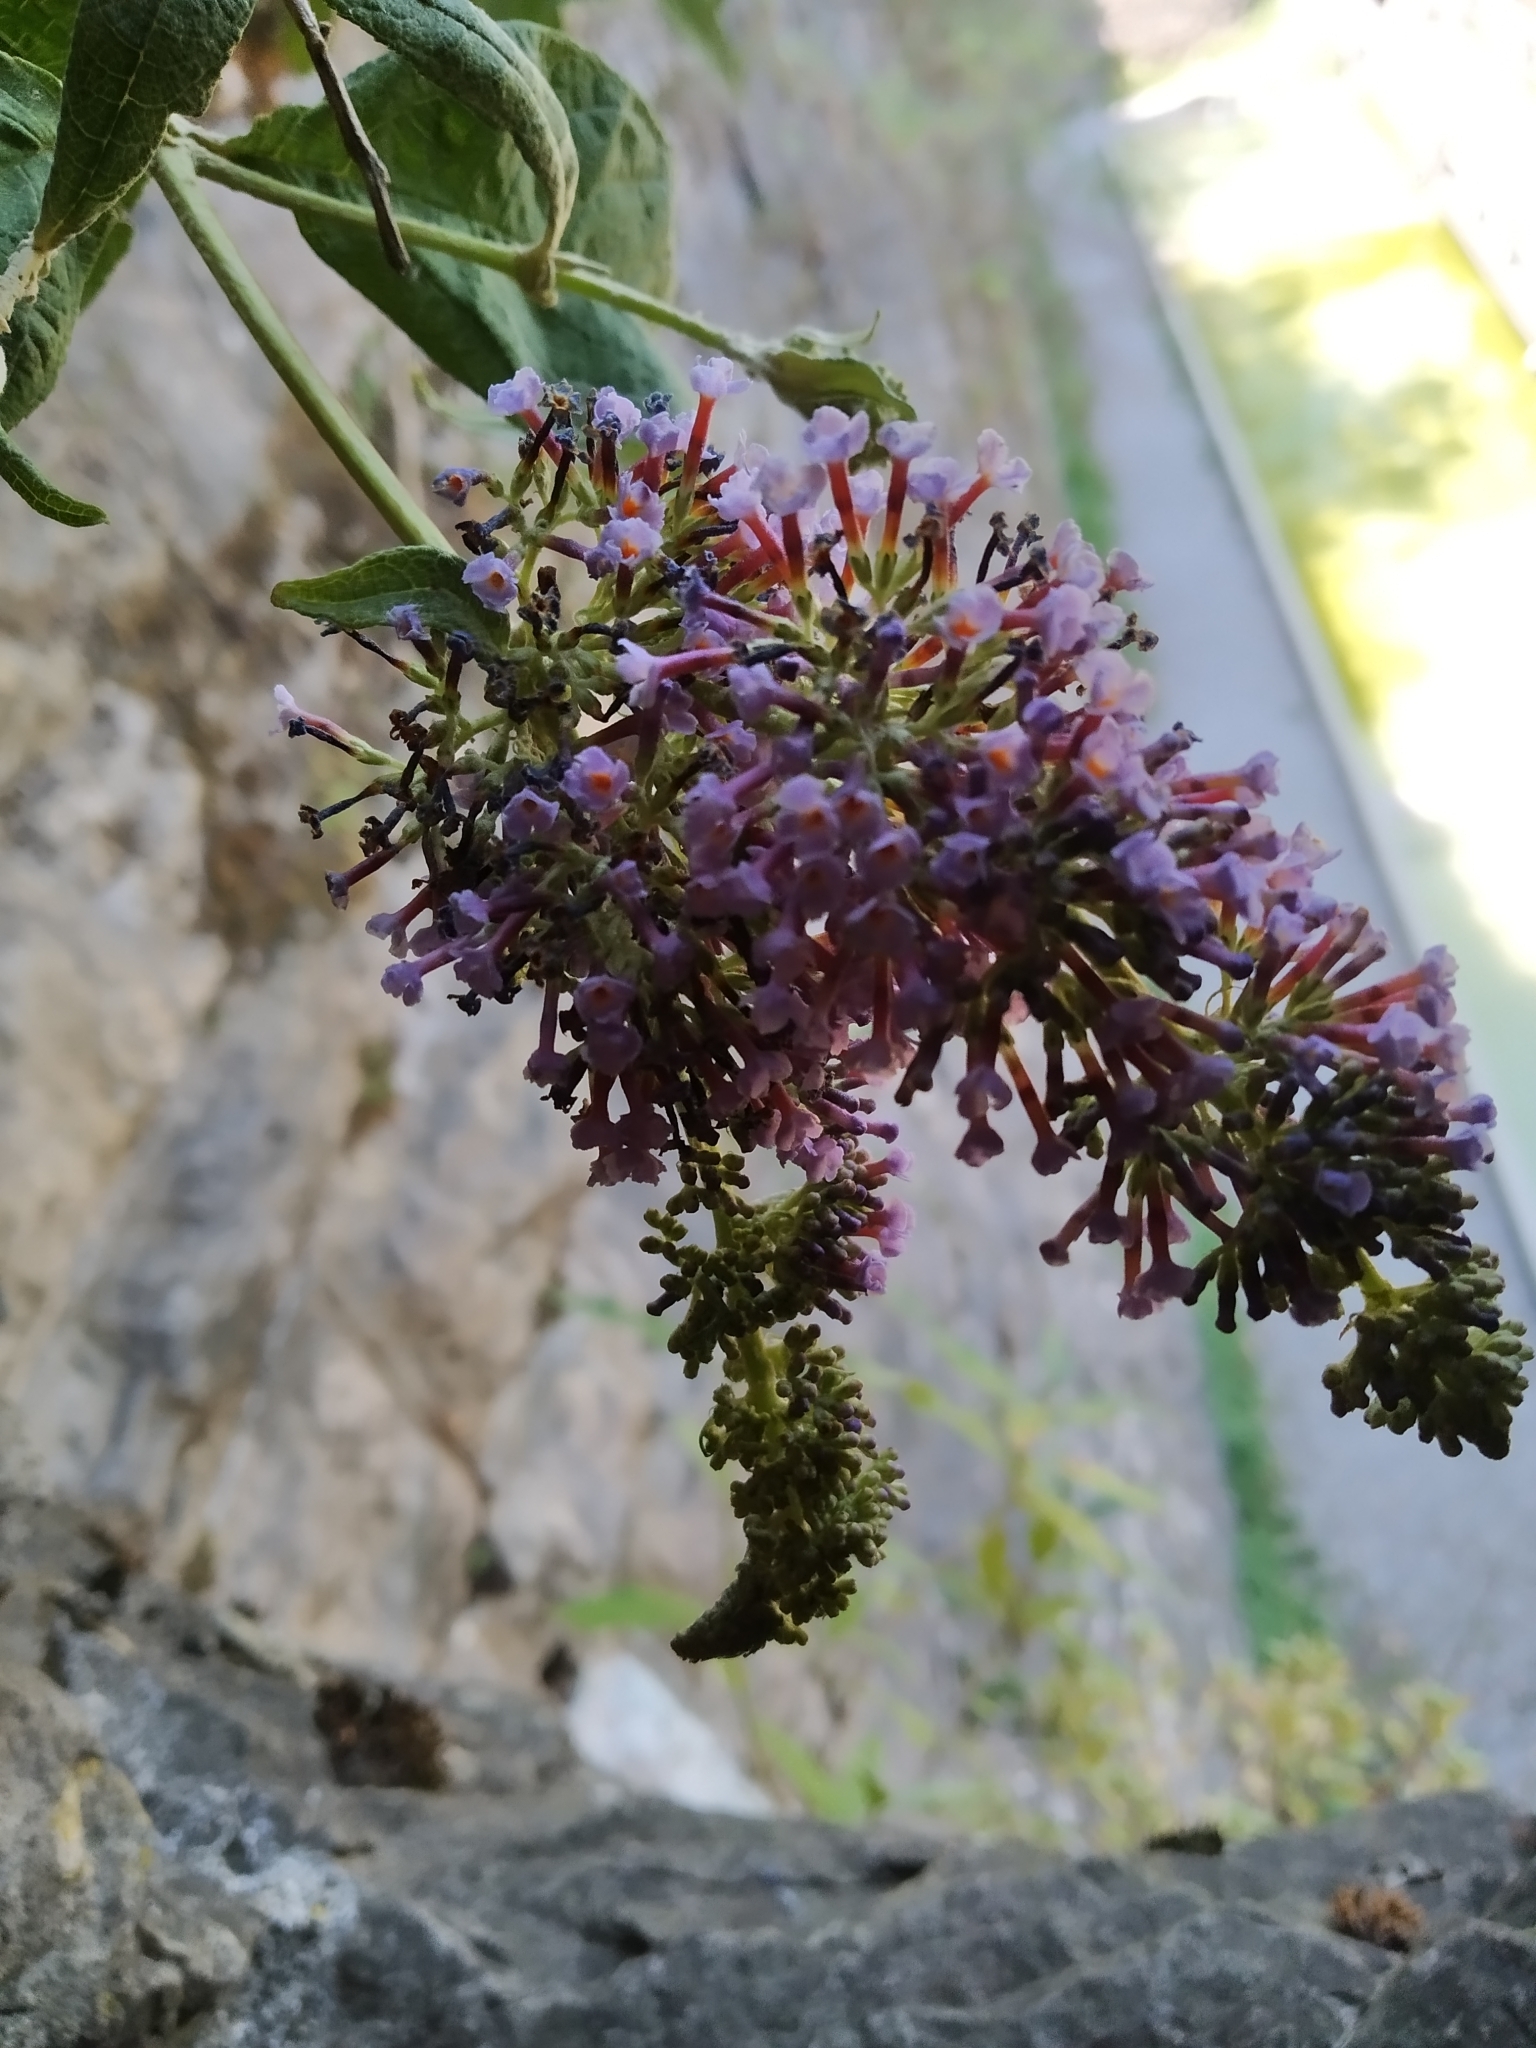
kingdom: Plantae
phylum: Tracheophyta
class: Magnoliopsida
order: Lamiales
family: Scrophulariaceae
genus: Buddleja
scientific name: Buddleja davidii
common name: Butterfly-bush
